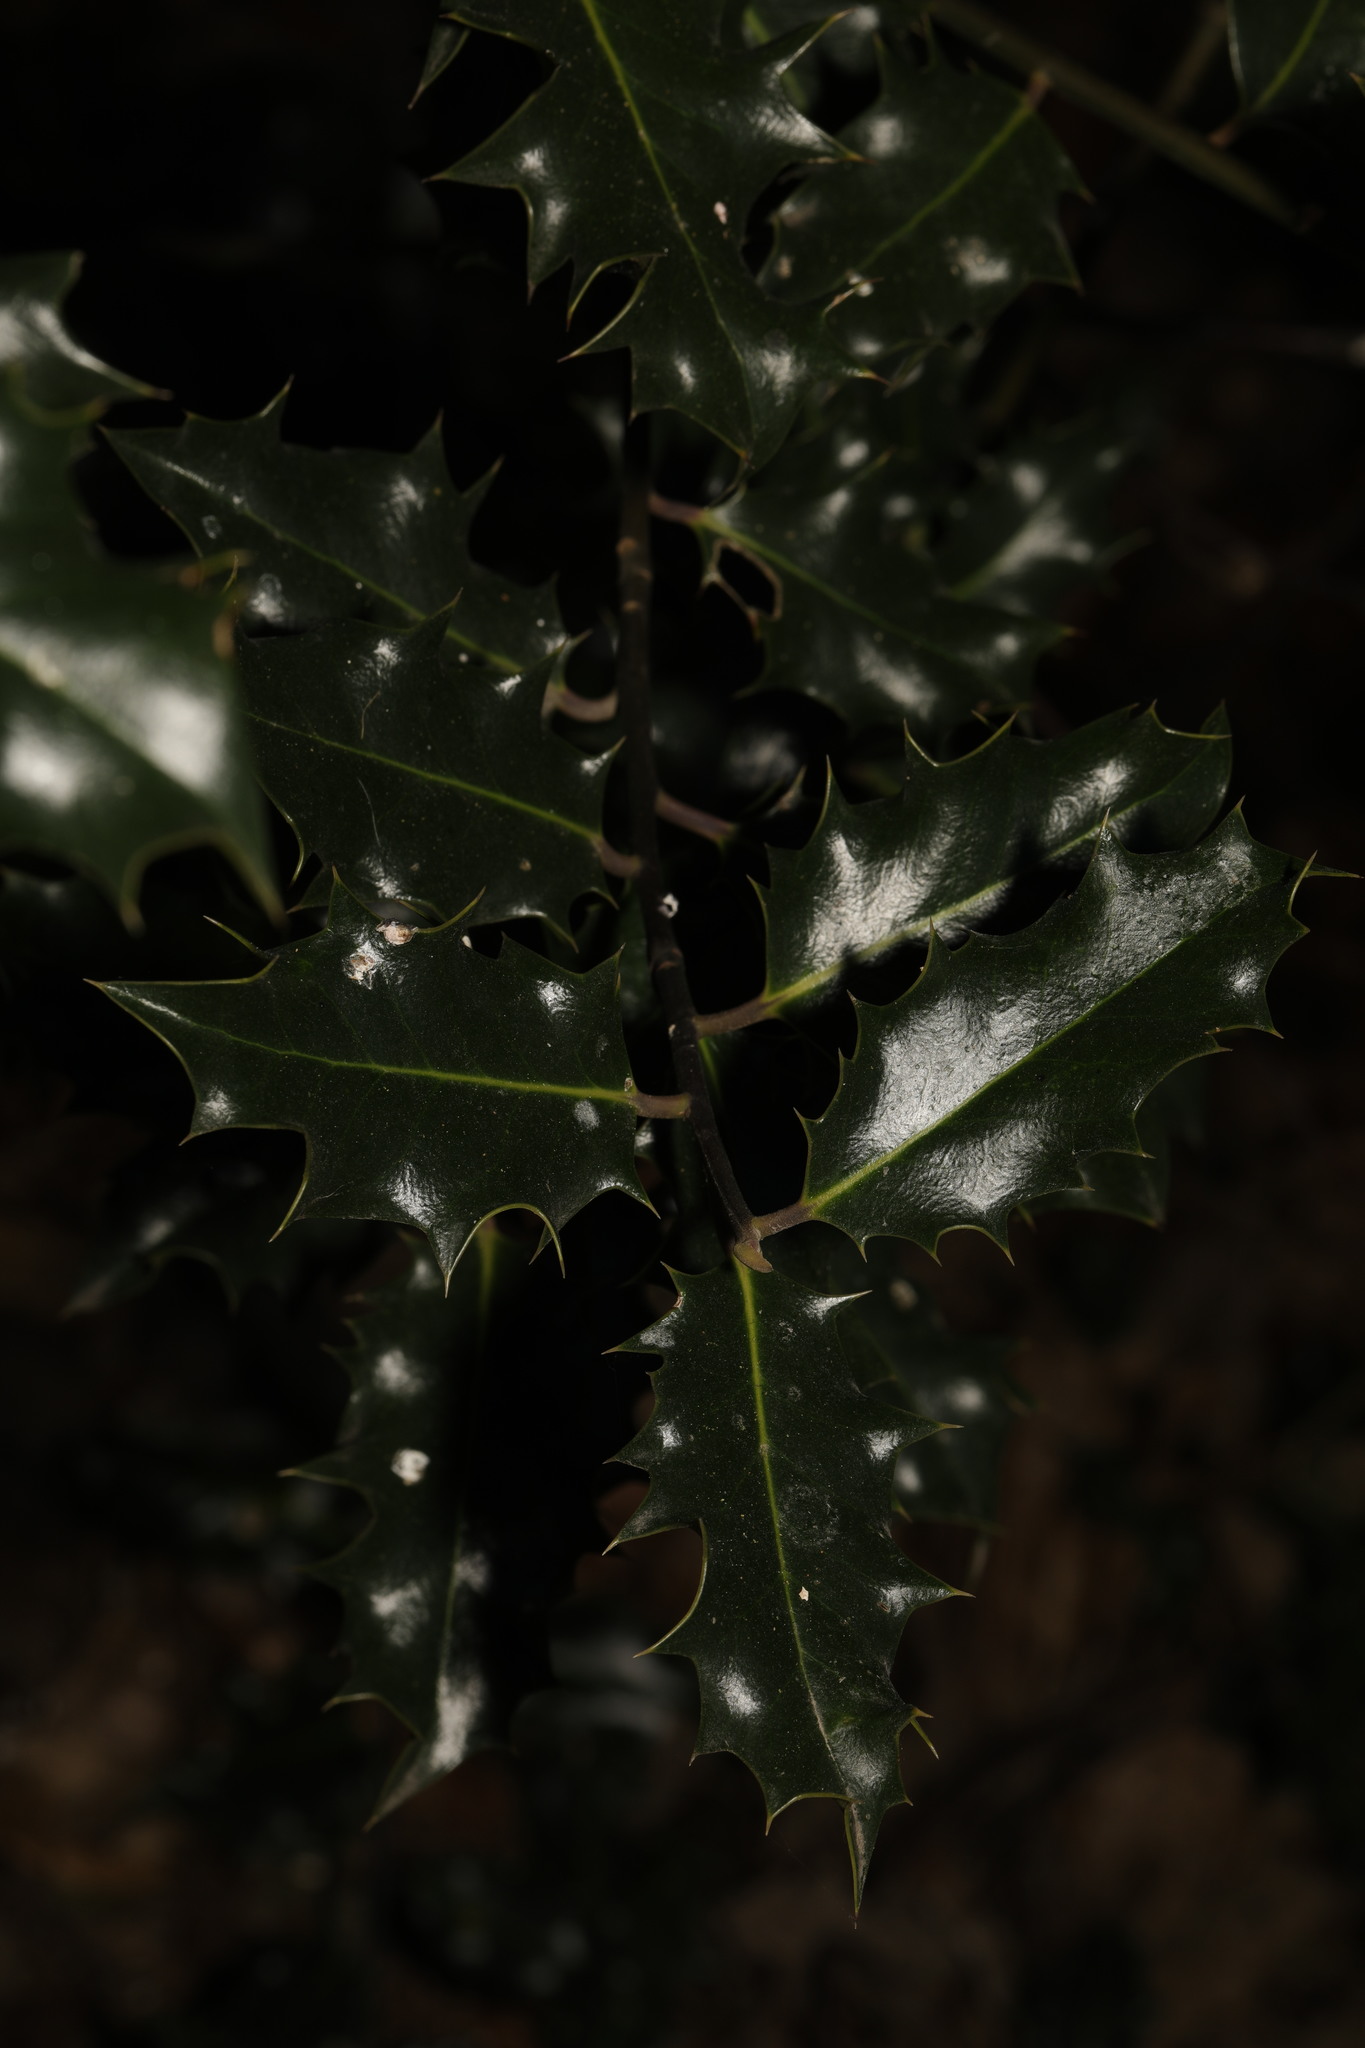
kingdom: Plantae
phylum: Tracheophyta
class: Magnoliopsida
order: Aquifoliales
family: Aquifoliaceae
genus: Ilex
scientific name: Ilex aquifolium
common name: English holly
